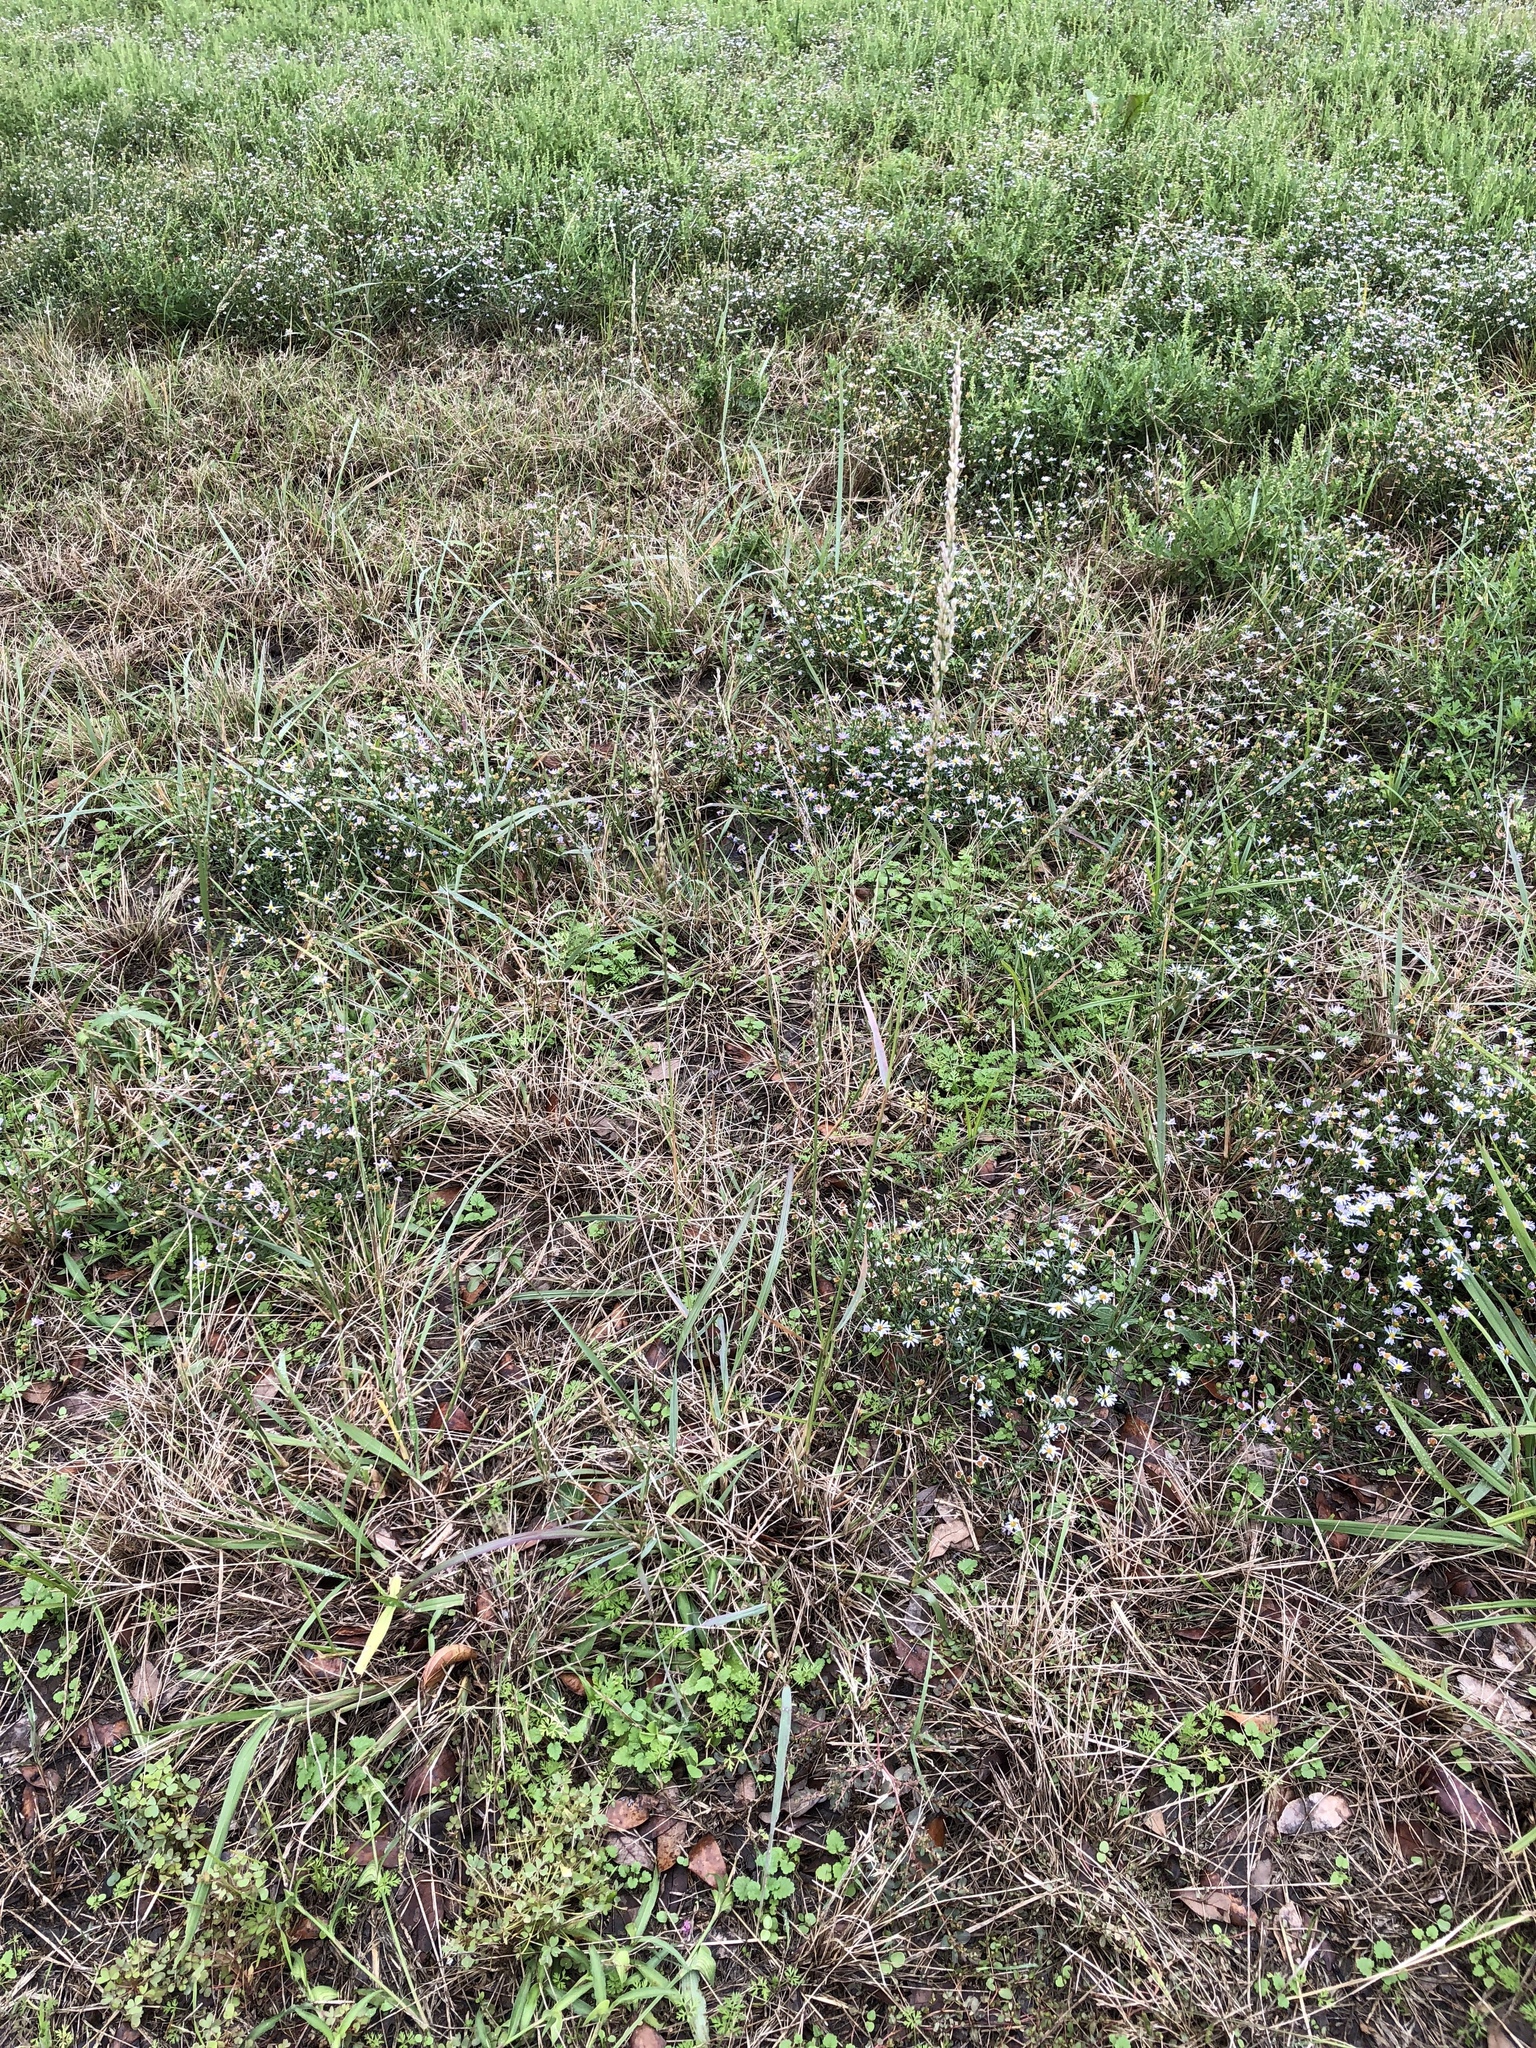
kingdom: Plantae
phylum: Tracheophyta
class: Liliopsida
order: Poales
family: Poaceae
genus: Tridens
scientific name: Tridens albescens
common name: White tridens
